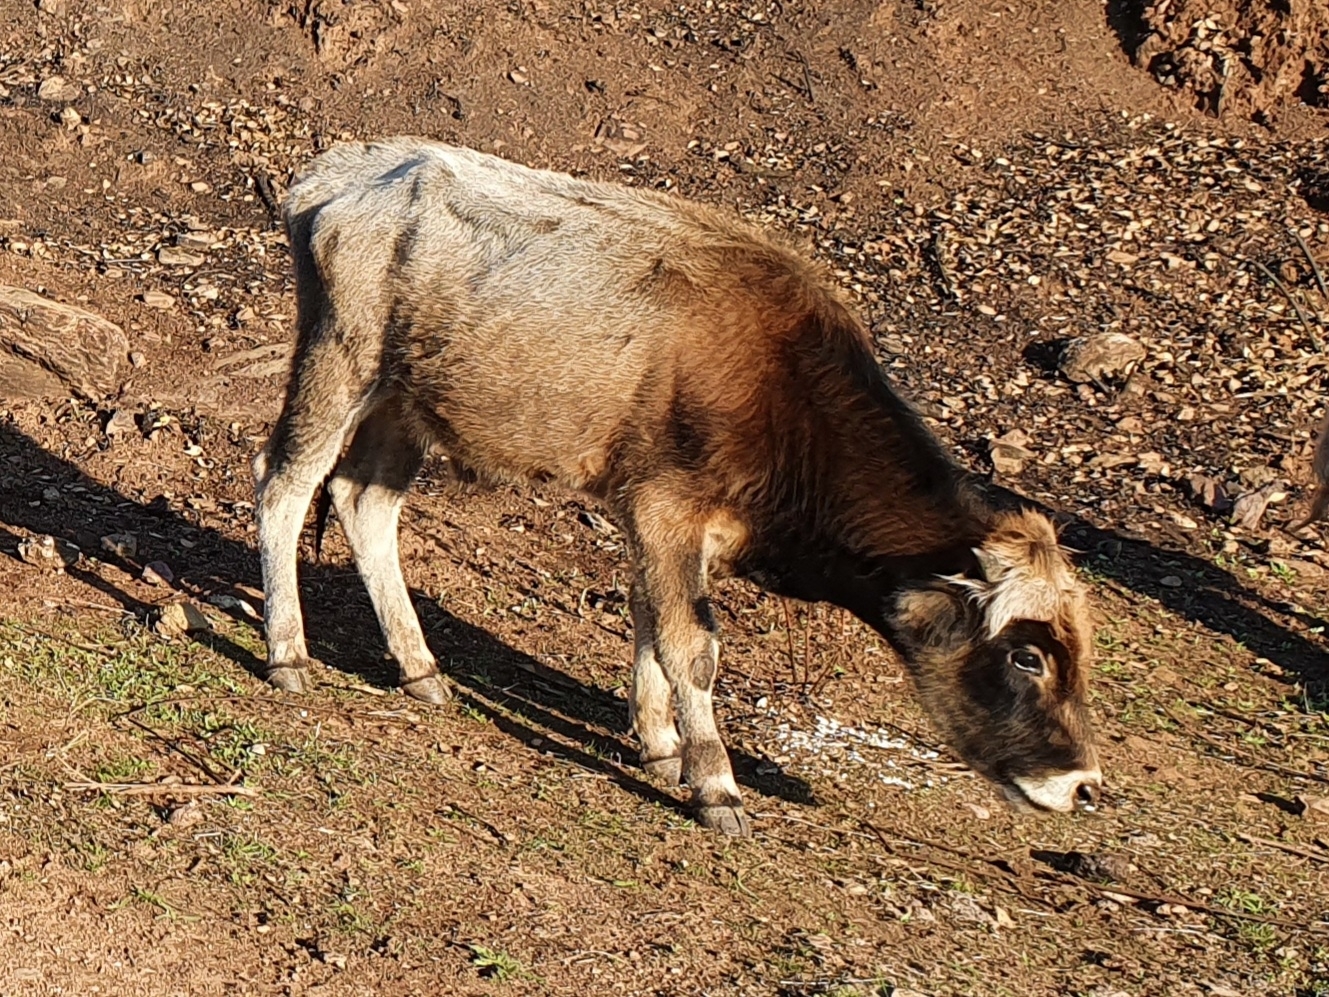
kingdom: Animalia
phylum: Chordata
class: Mammalia
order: Artiodactyla
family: Bovidae
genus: Bos
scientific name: Bos taurus
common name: Domesticated cattle
